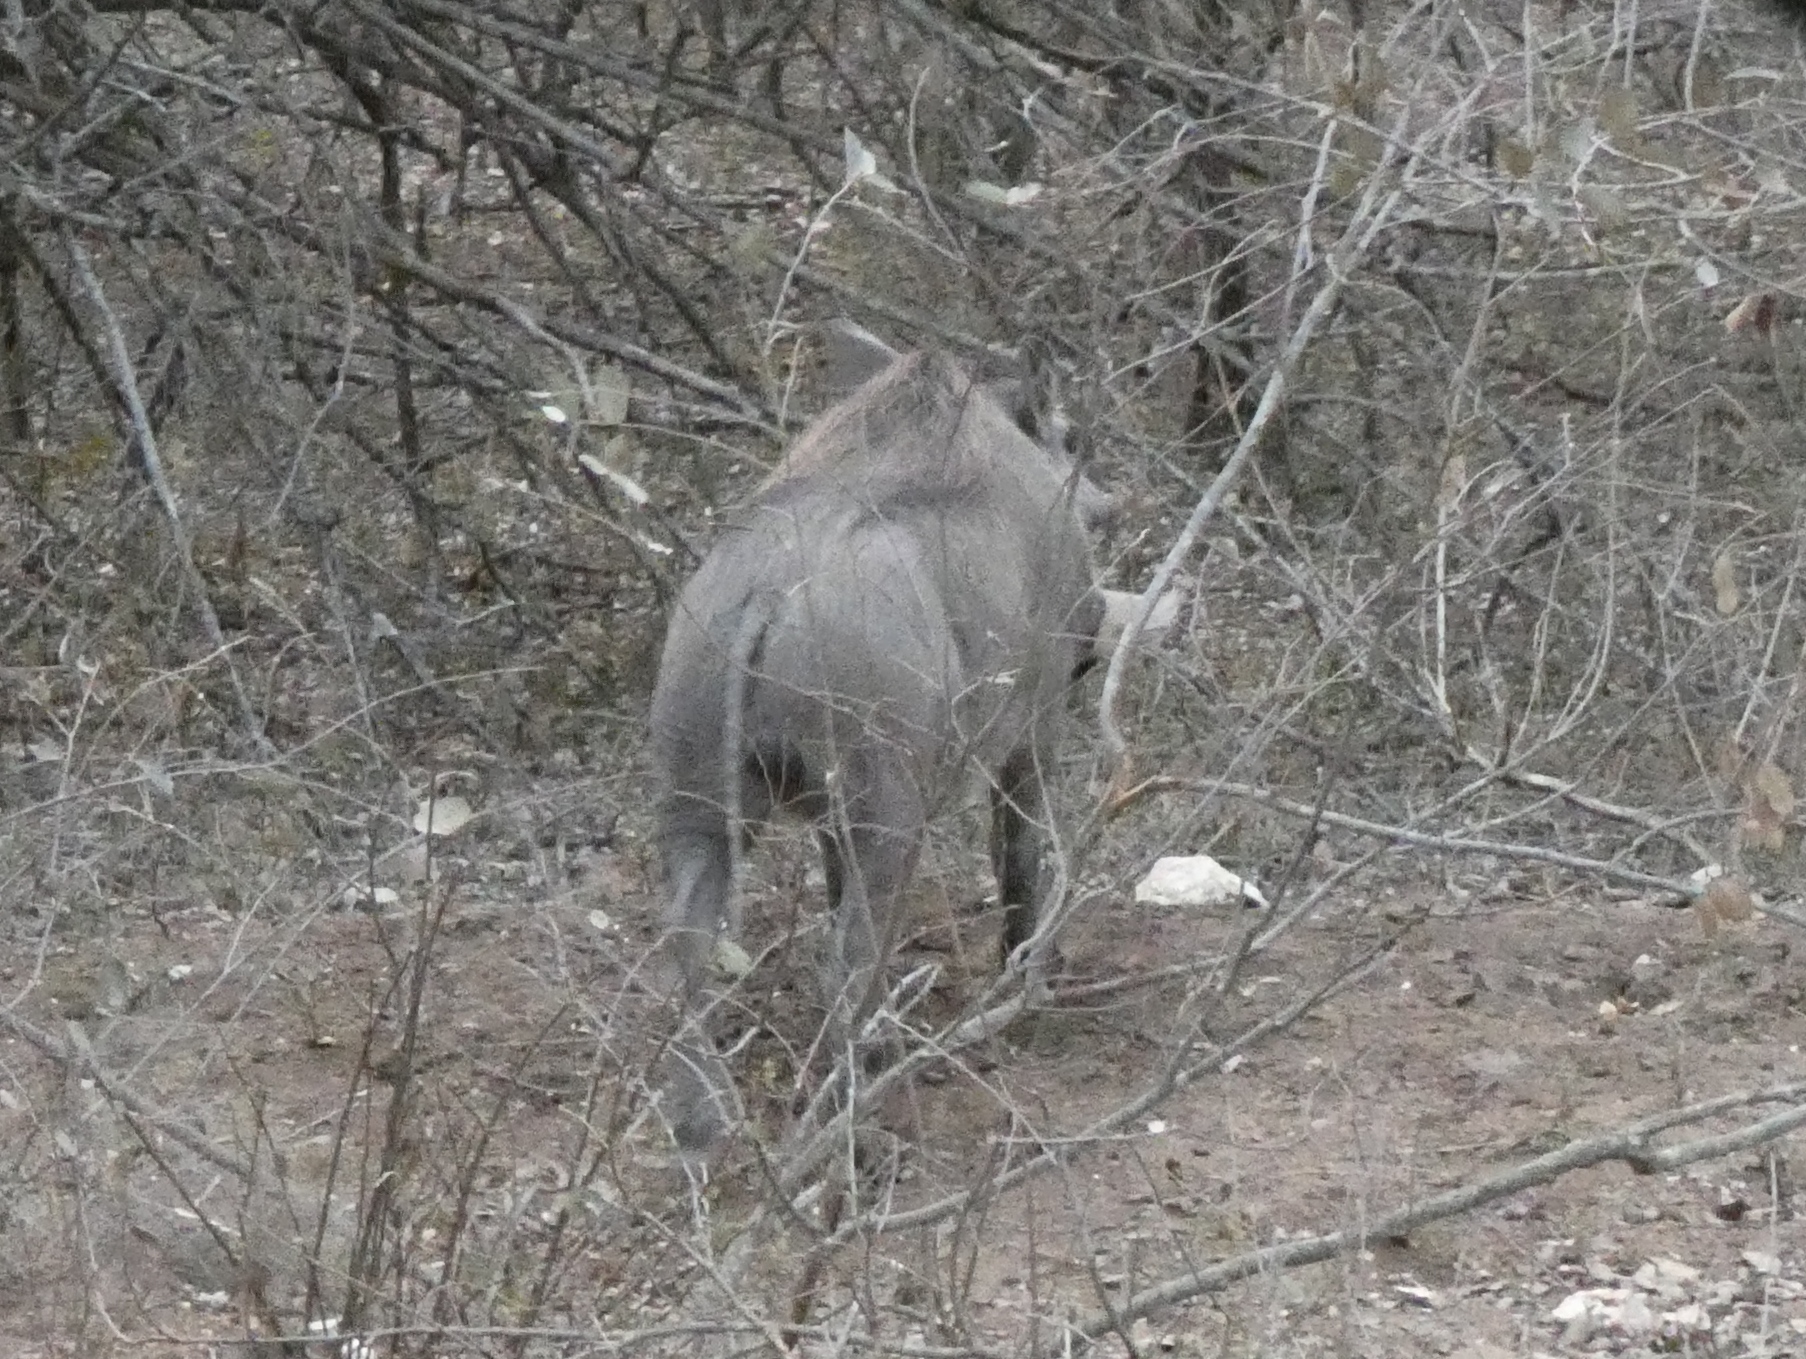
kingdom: Animalia
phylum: Chordata
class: Mammalia
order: Artiodactyla
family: Suidae
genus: Phacochoerus
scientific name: Phacochoerus africanus
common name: Common warthog
